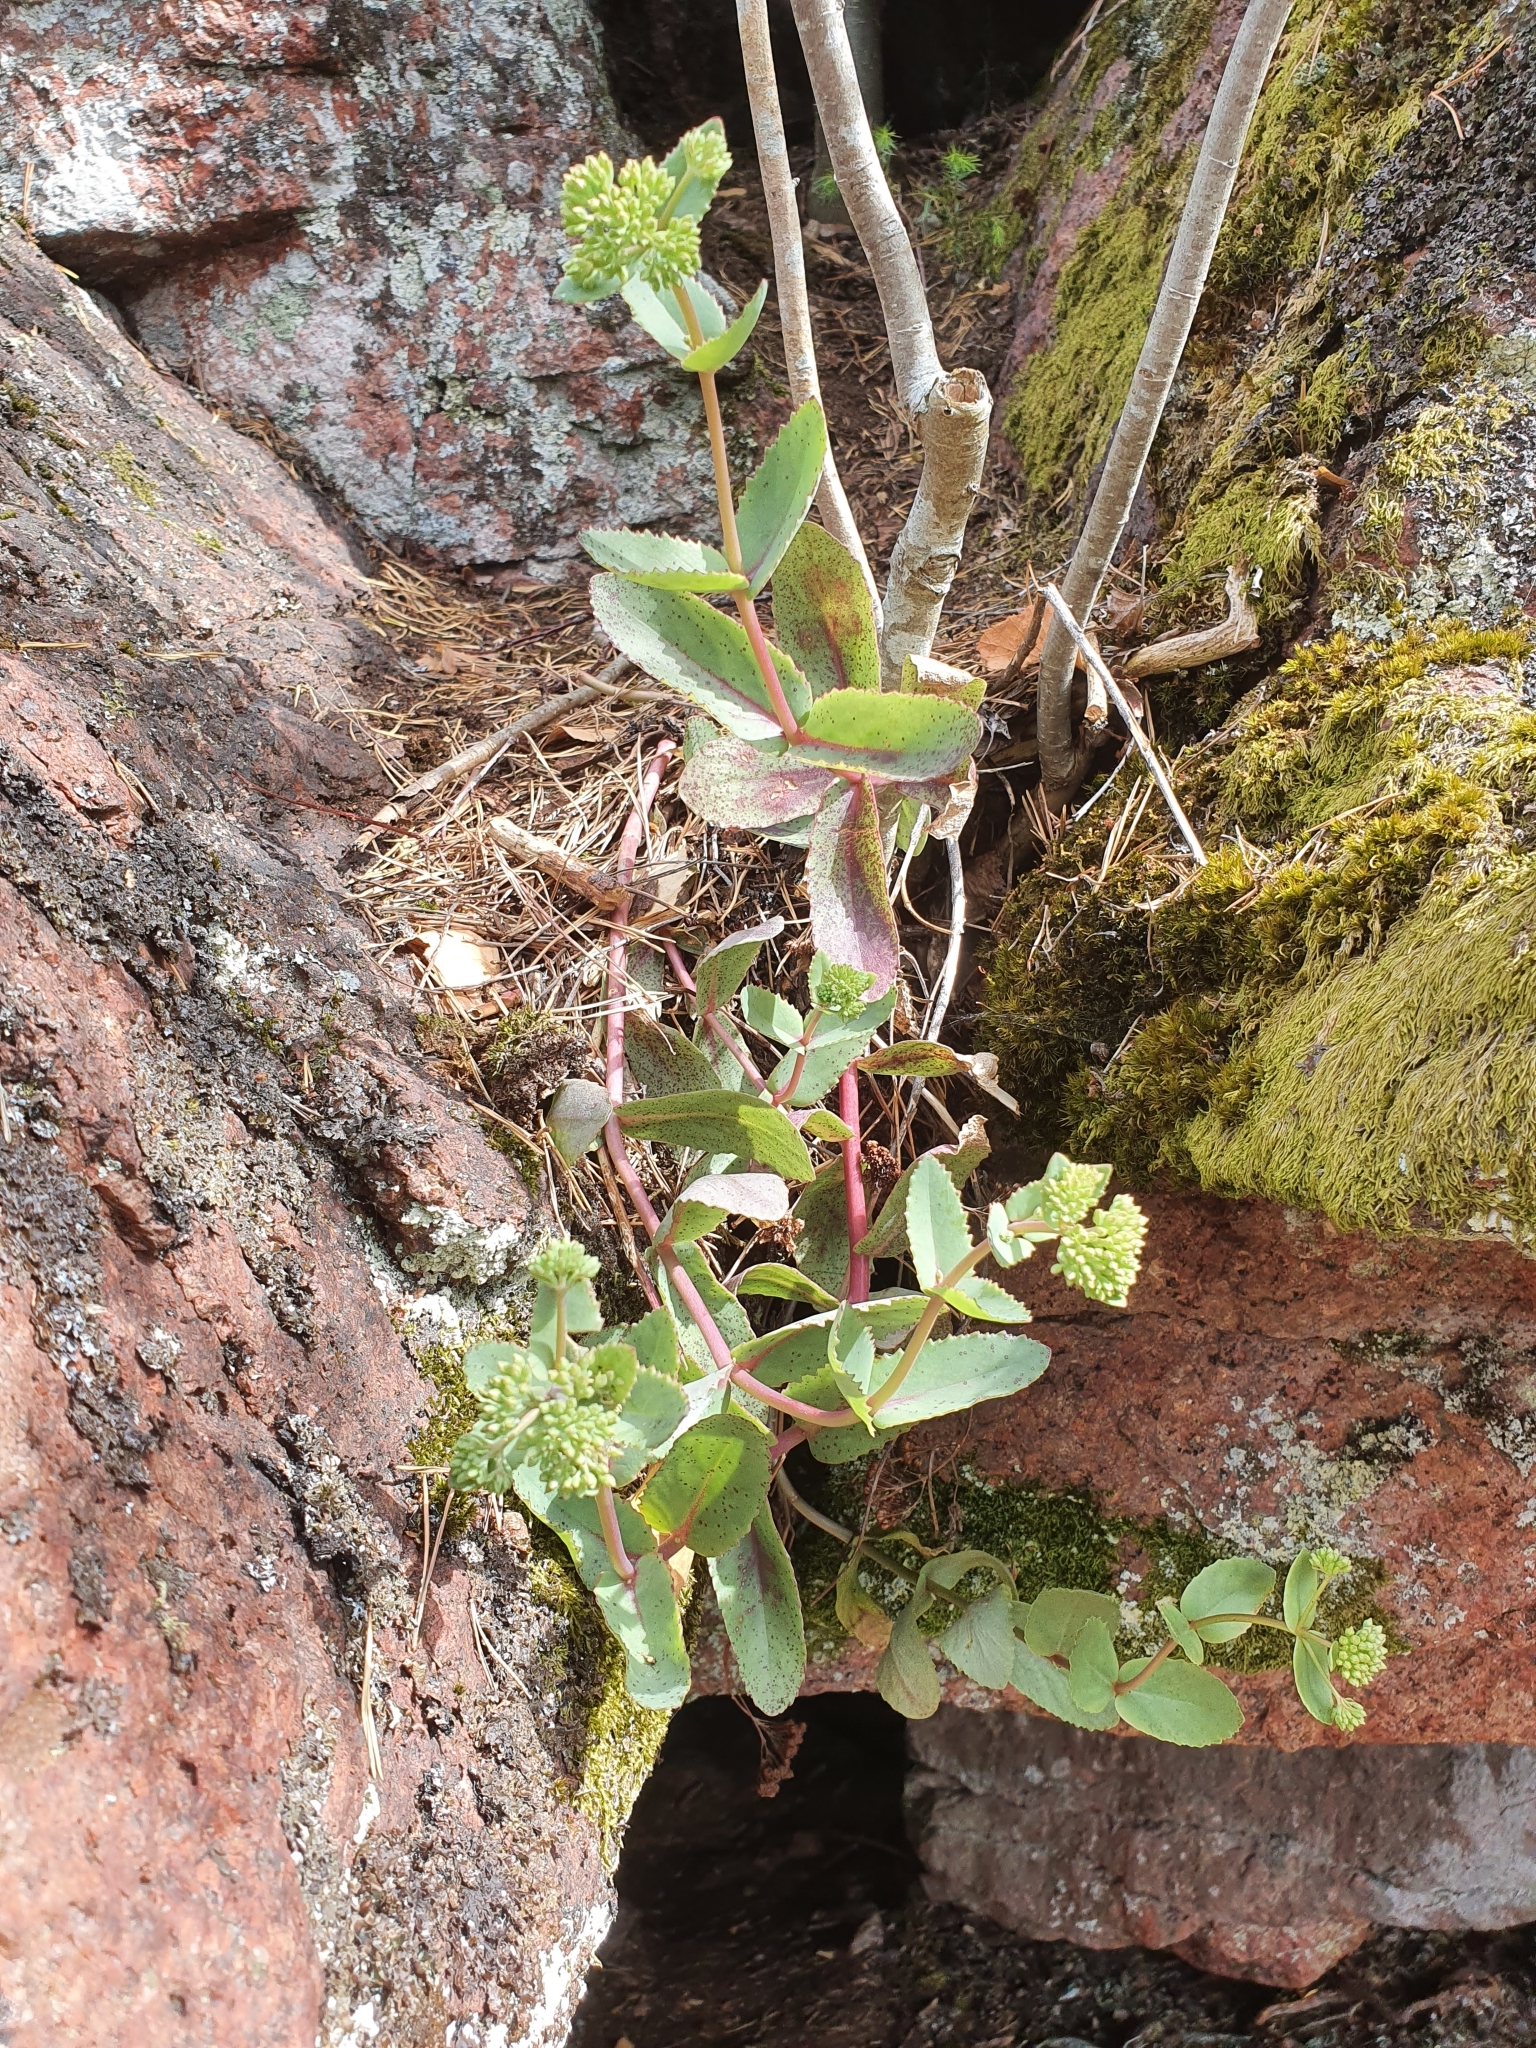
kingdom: Plantae
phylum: Tracheophyta
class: Magnoliopsida
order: Saxifragales
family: Crassulaceae
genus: Hylotelephium
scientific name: Hylotelephium maximum
